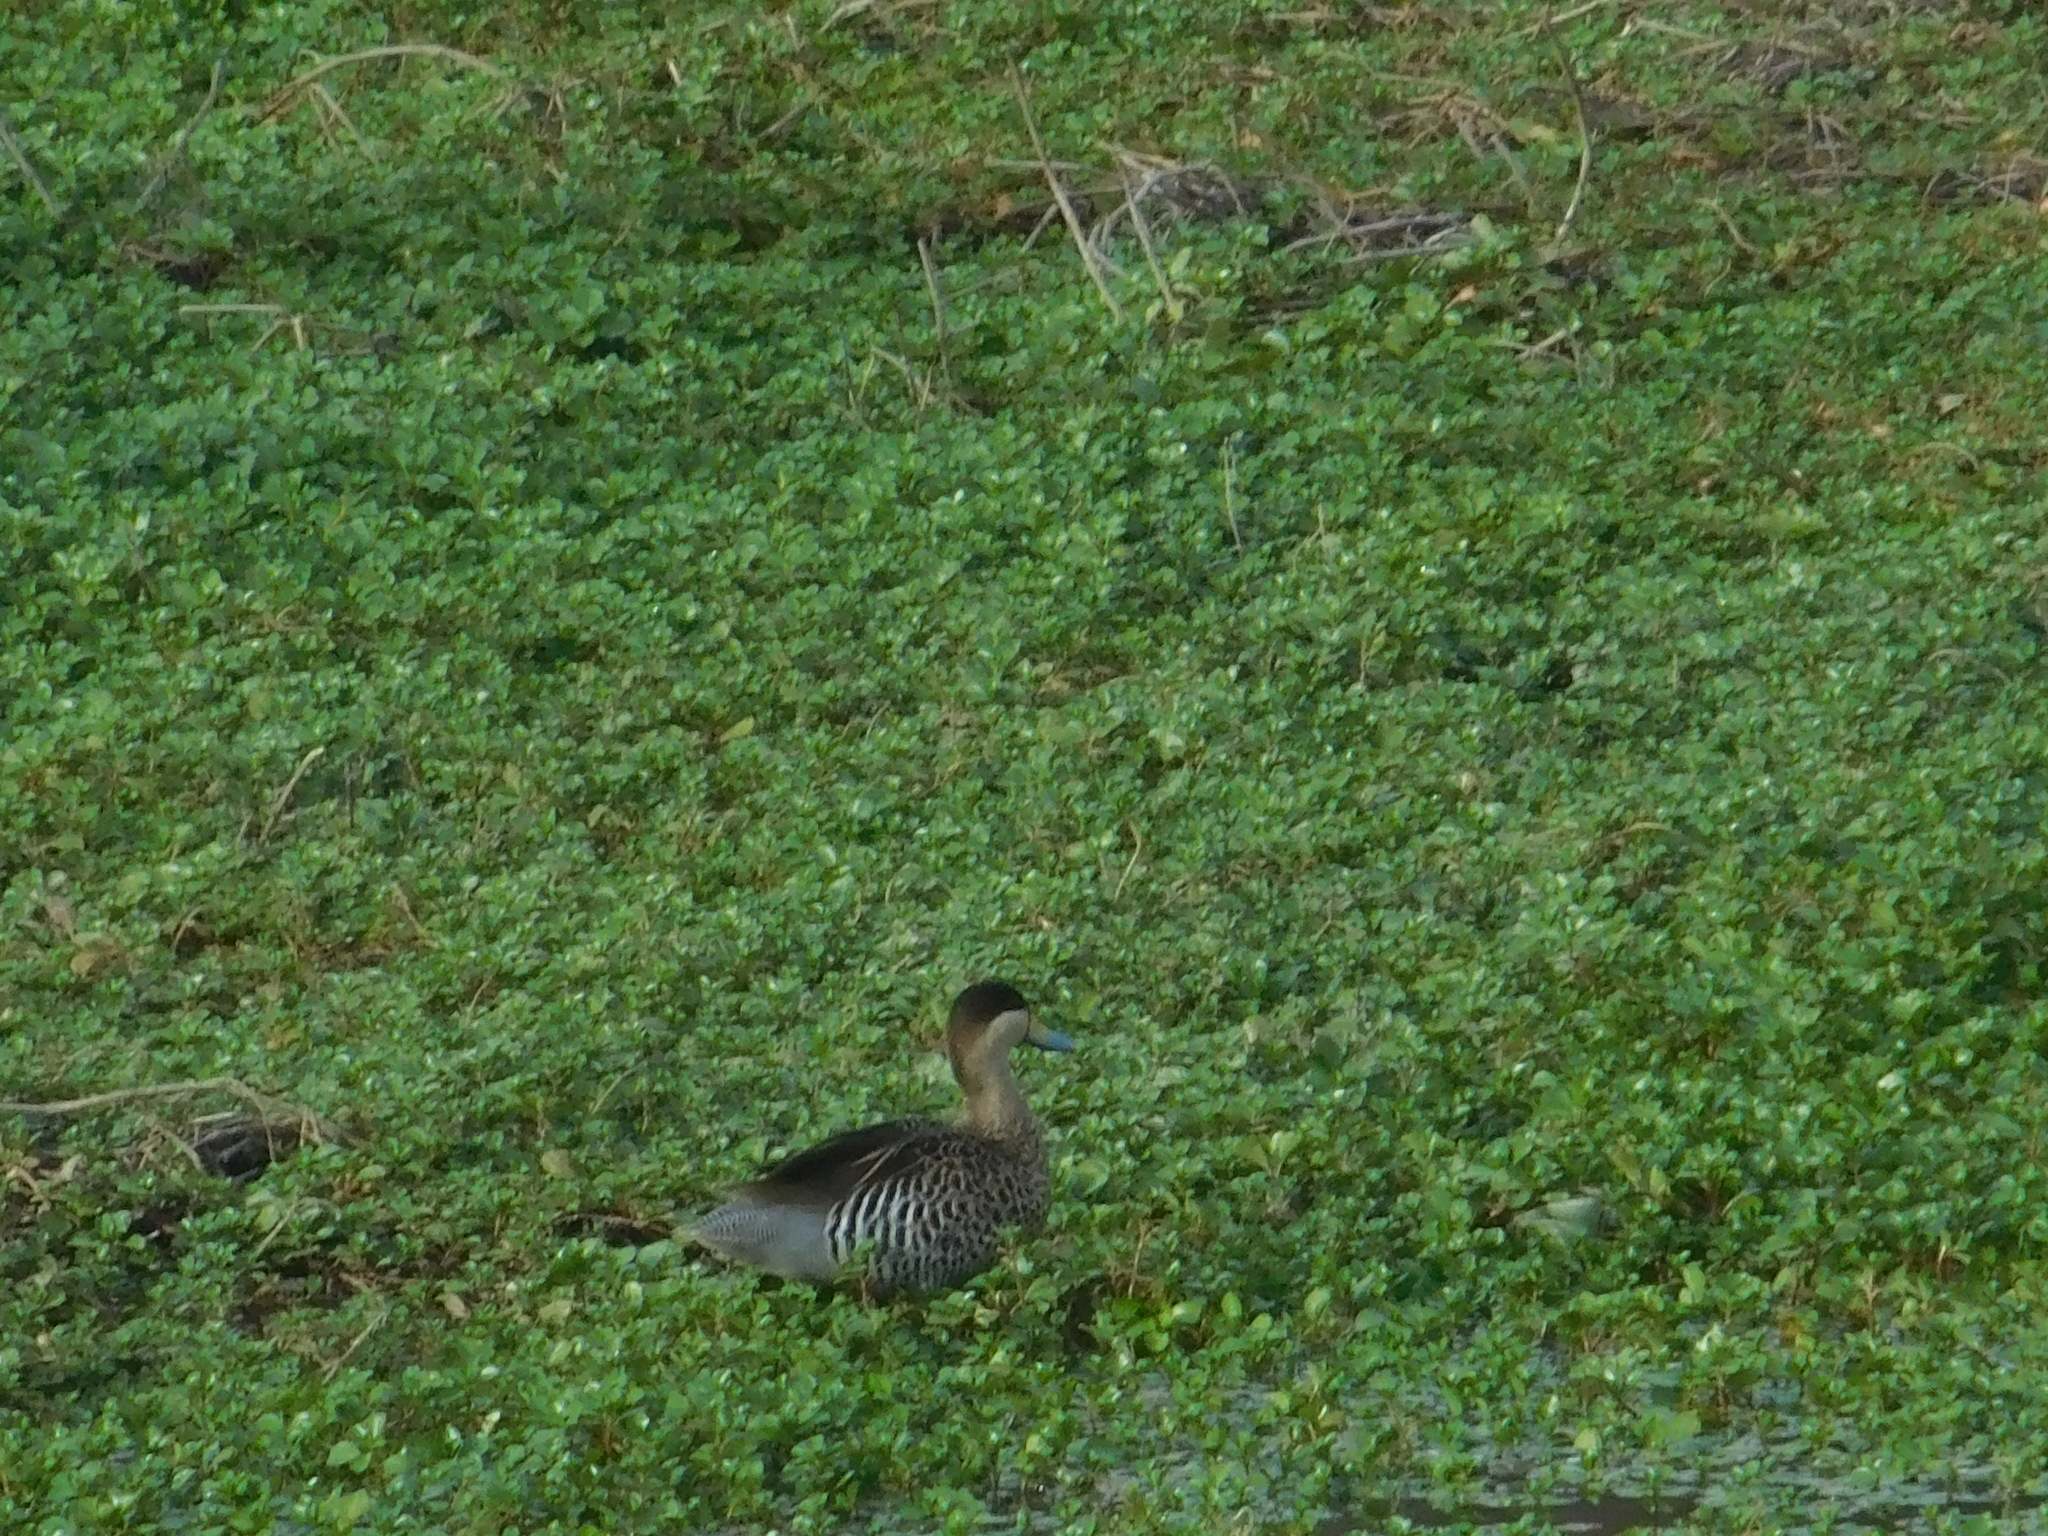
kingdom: Animalia
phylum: Chordata
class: Aves
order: Anseriformes
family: Anatidae
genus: Spatula
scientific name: Spatula versicolor
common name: Silver teal
